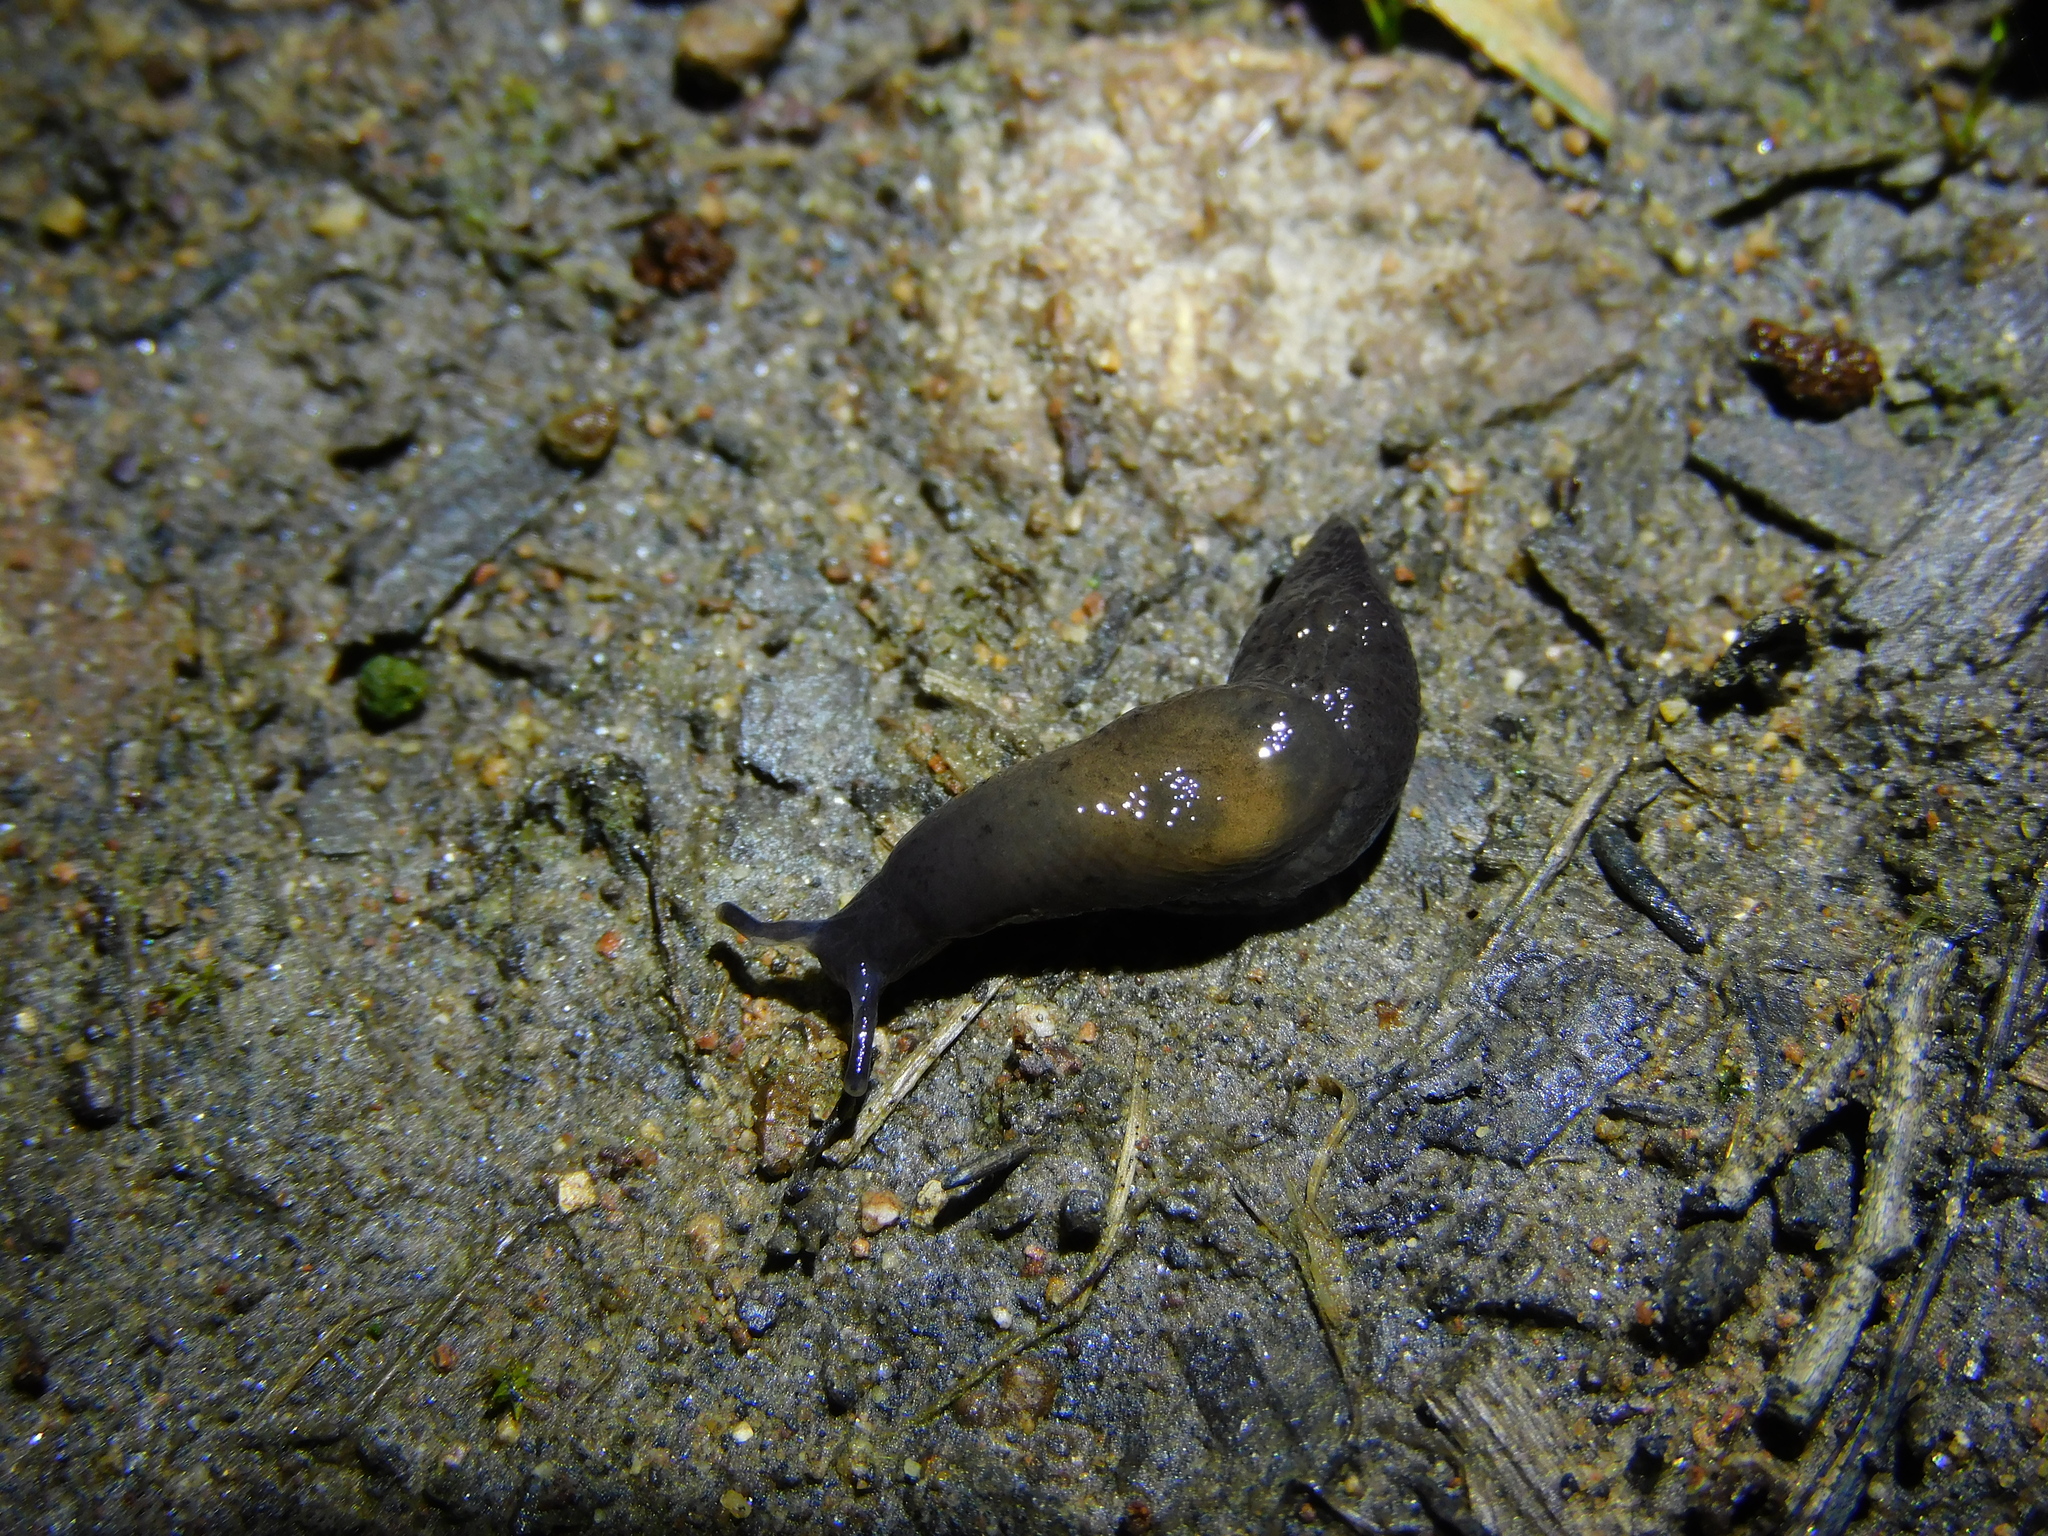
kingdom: Animalia
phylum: Mollusca
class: Gastropoda
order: Stylommatophora
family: Agriolimacidae
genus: Deroceras
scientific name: Deroceras invadens
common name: Caruana's slug
